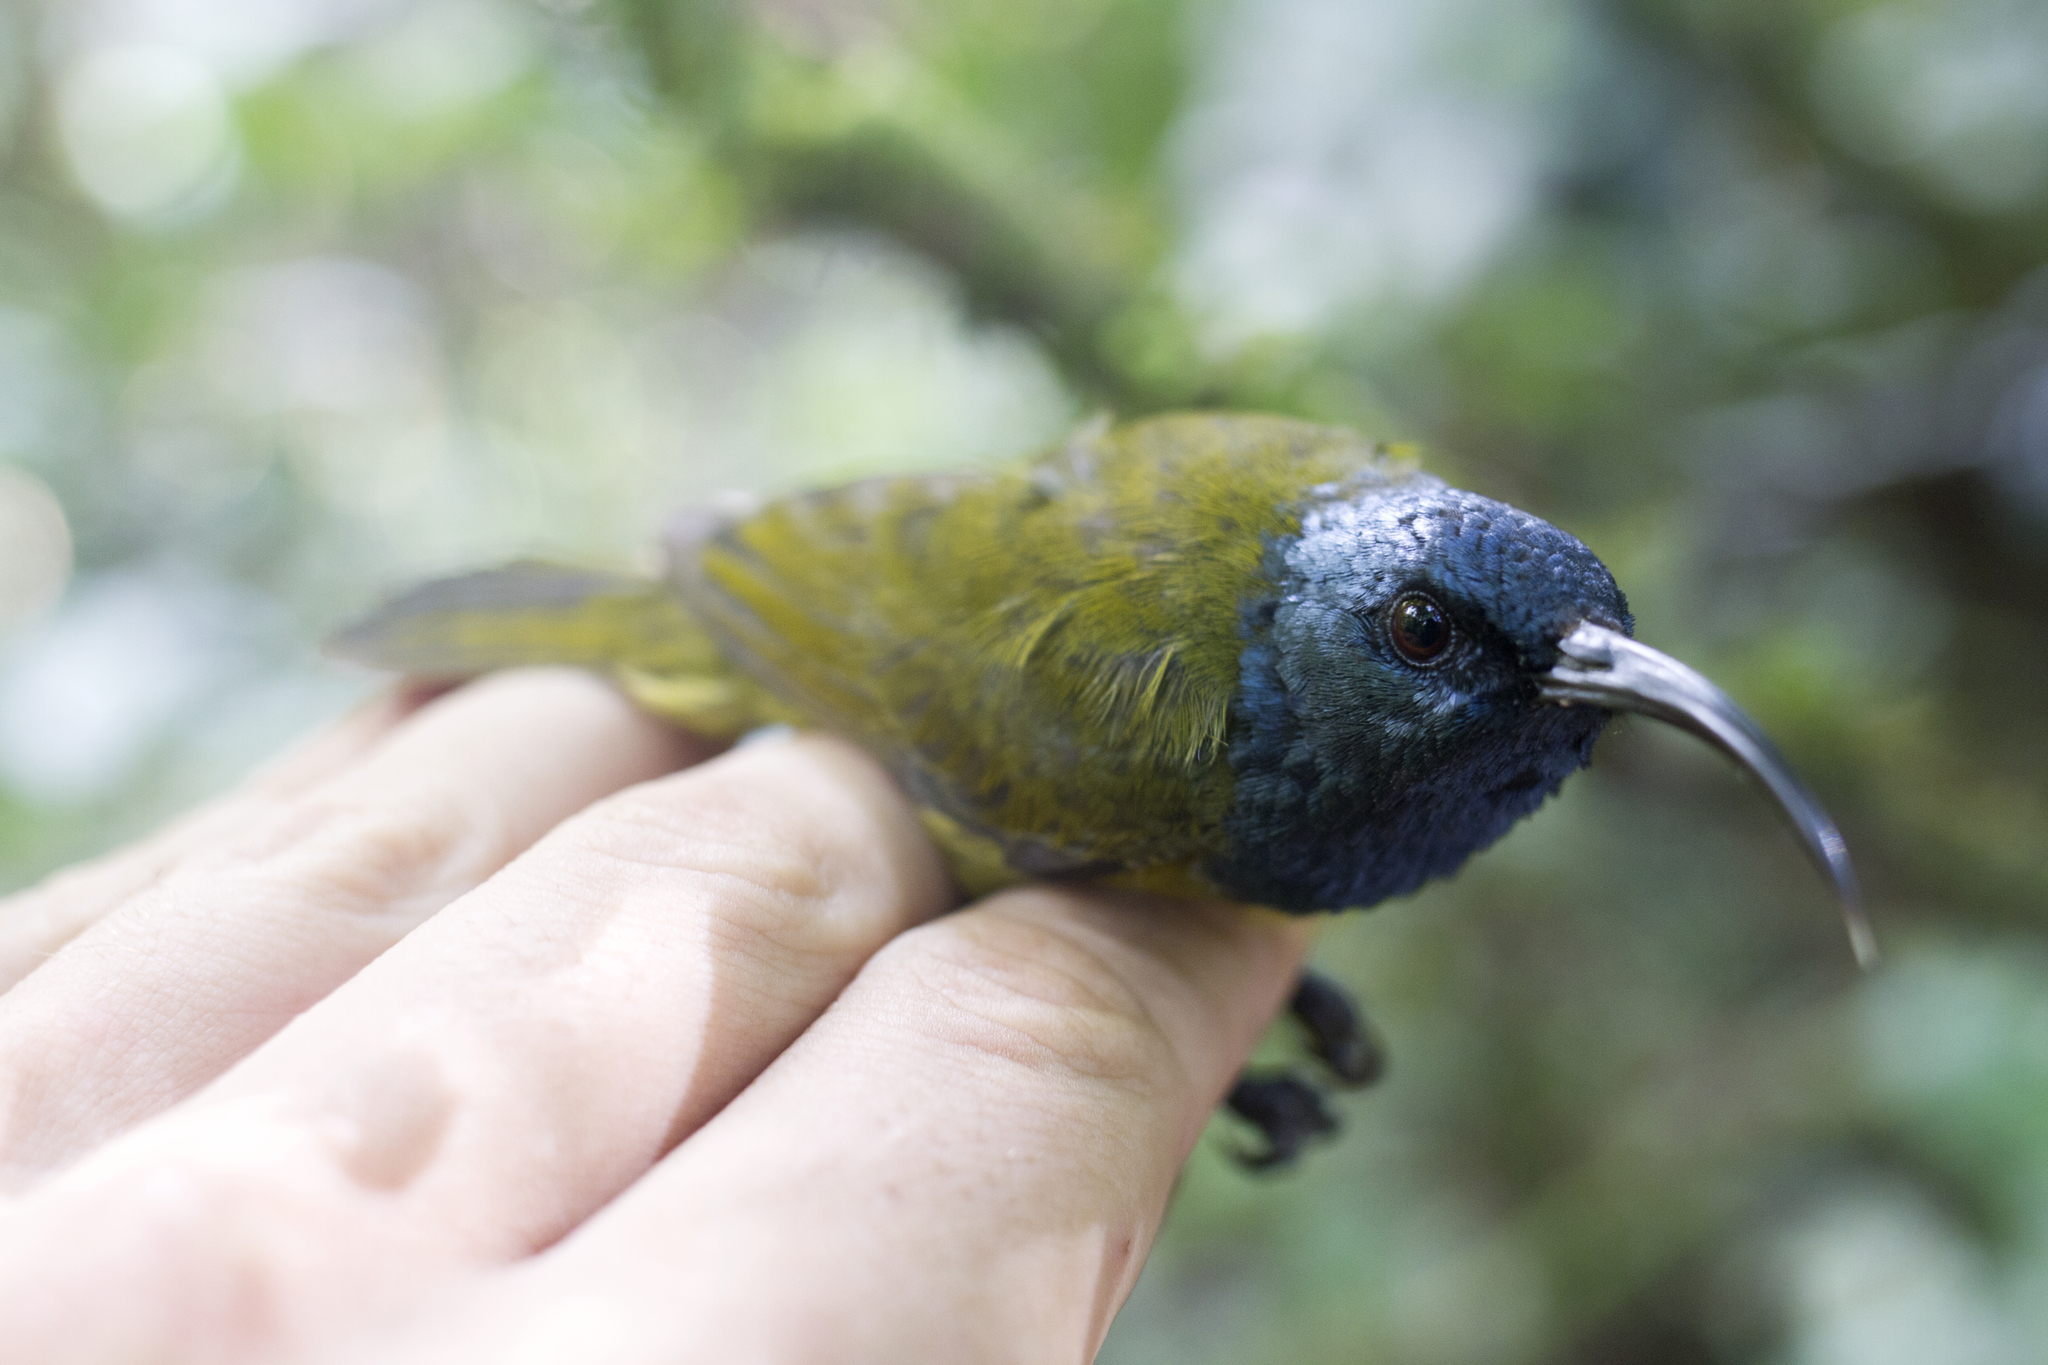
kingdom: Animalia
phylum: Chordata
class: Aves
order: Passeriformes
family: Nectariniidae
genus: Cyanomitra
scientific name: Cyanomitra oritis
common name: Cameroon sunbird
